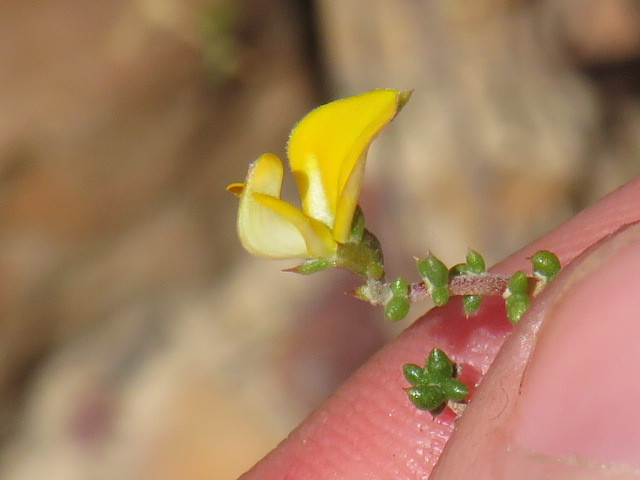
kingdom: Plantae
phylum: Tracheophyta
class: Magnoliopsida
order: Fabales
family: Fabaceae
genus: Aspalathus
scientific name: Aspalathus divaricata
